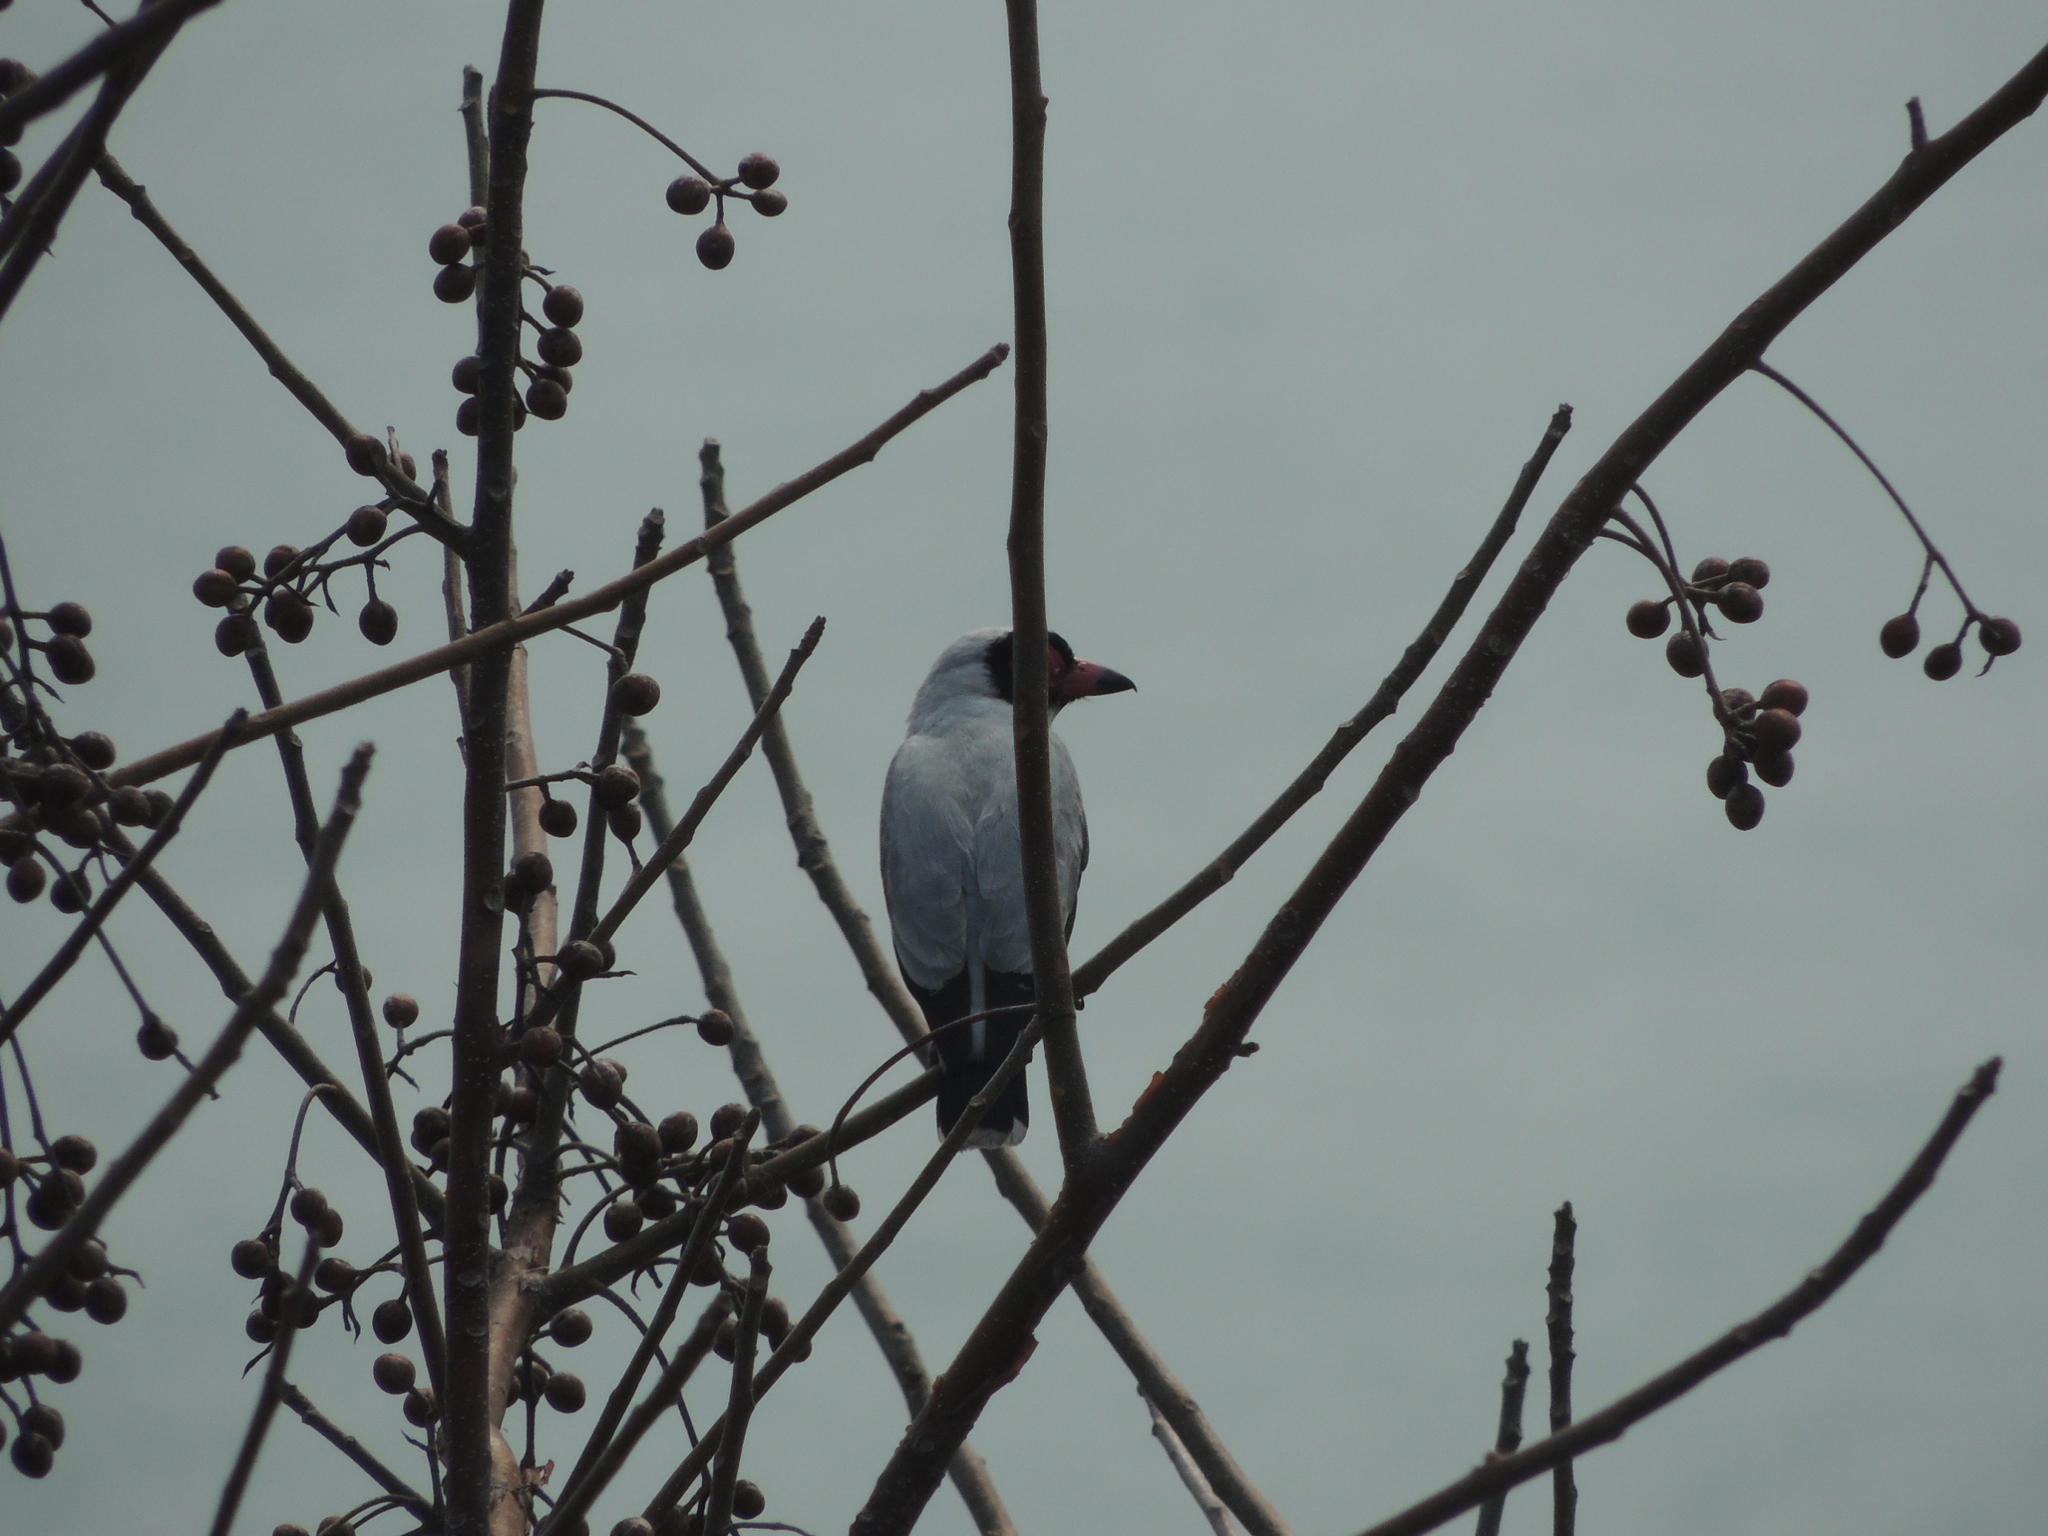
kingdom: Animalia
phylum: Chordata
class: Aves
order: Passeriformes
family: Cotingidae
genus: Tityra
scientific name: Tityra semifasciata
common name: Masked tityra
